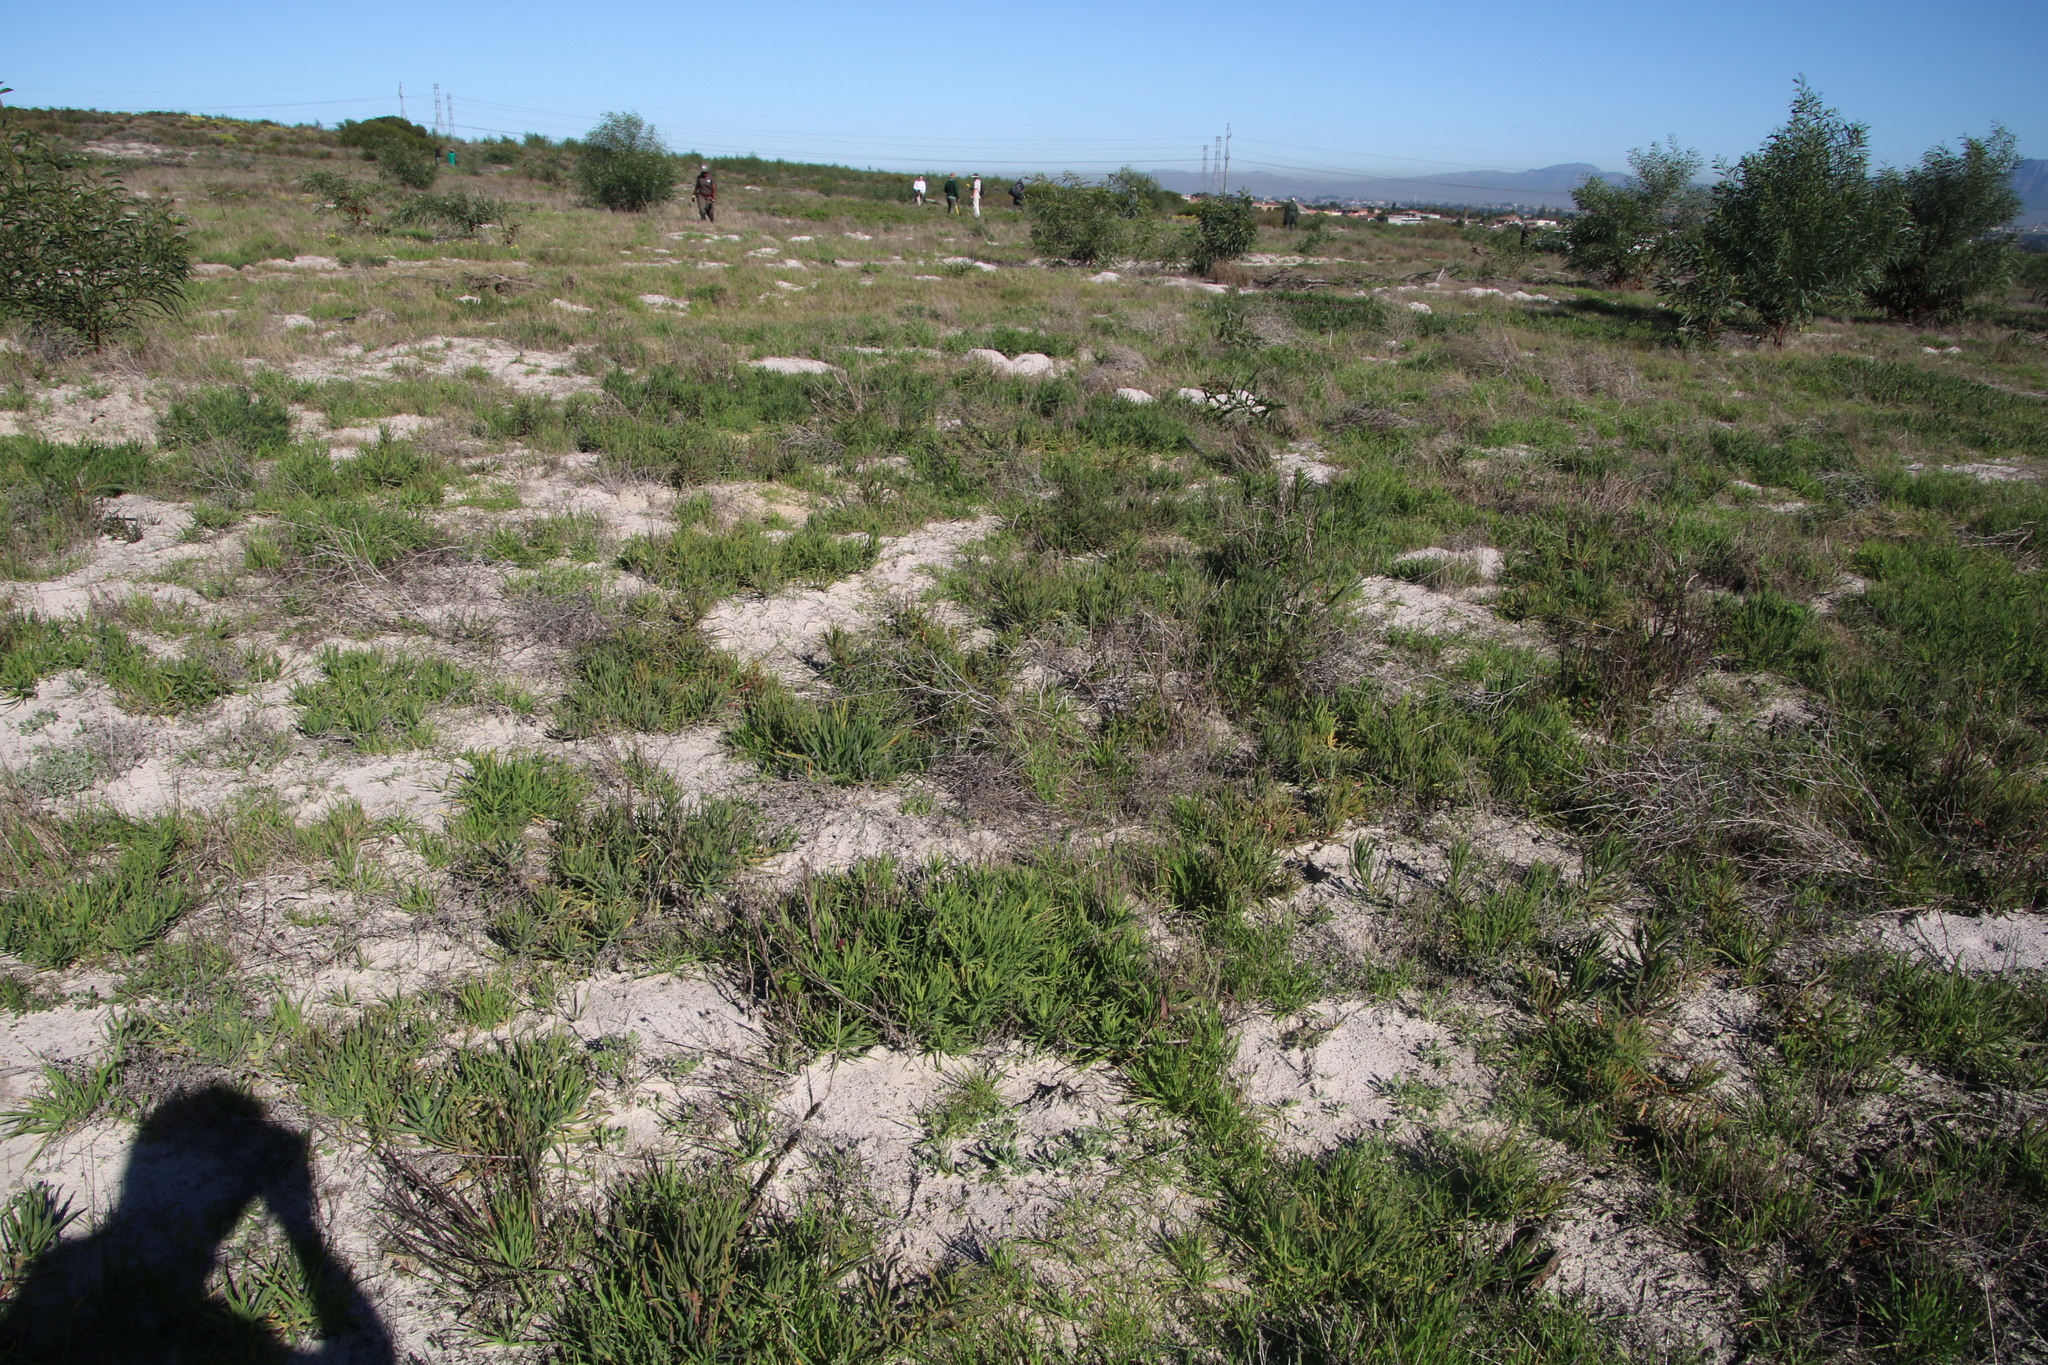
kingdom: Plantae
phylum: Tracheophyta
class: Magnoliopsida
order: Caryophyllales
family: Aizoaceae
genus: Conicosia
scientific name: Conicosia pugioniformis
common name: Narrow-leaved iceplant
